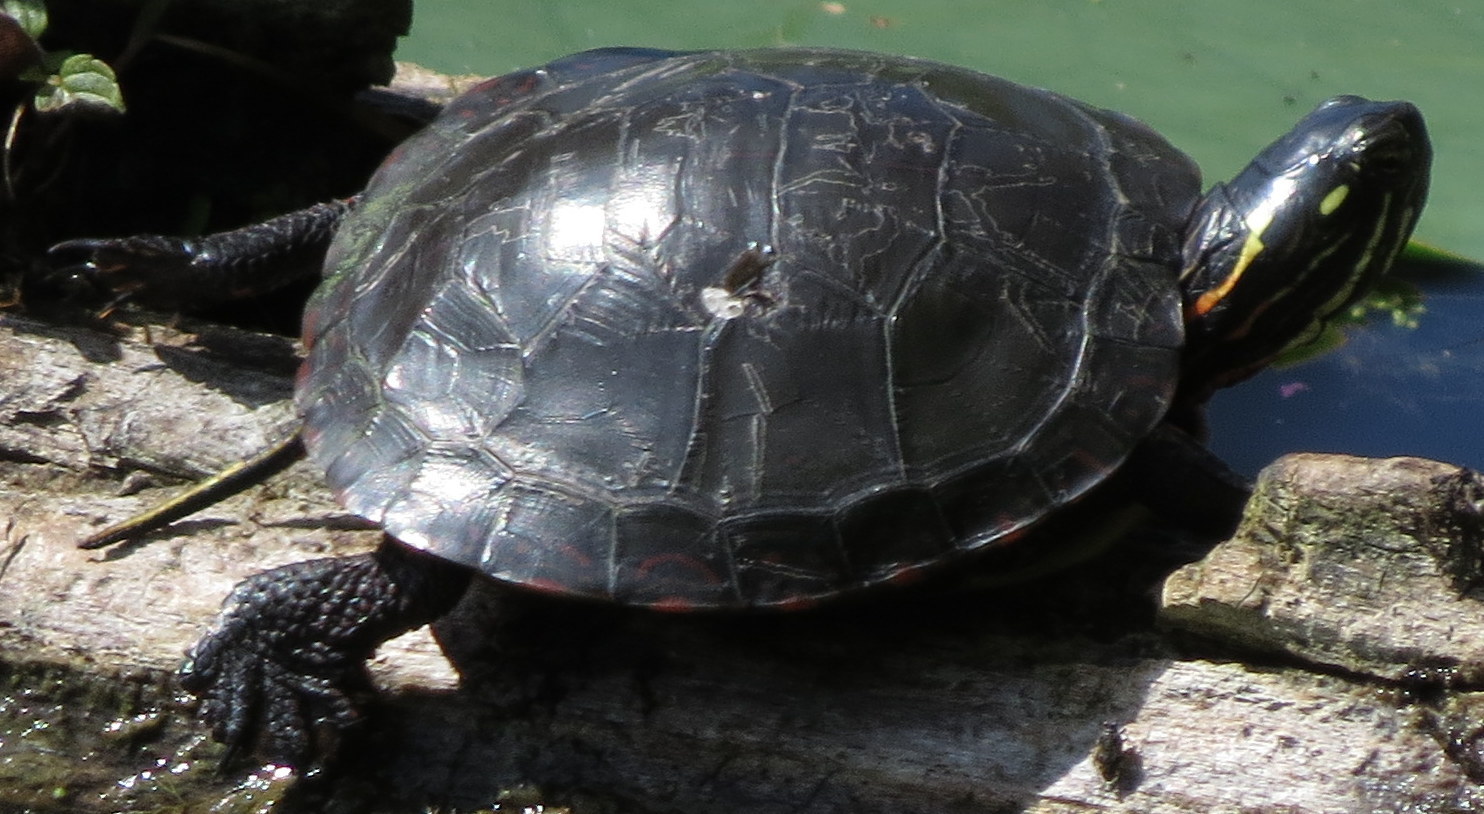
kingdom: Animalia
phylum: Chordata
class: Testudines
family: Emydidae
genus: Chrysemys
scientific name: Chrysemys picta
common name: Painted turtle
